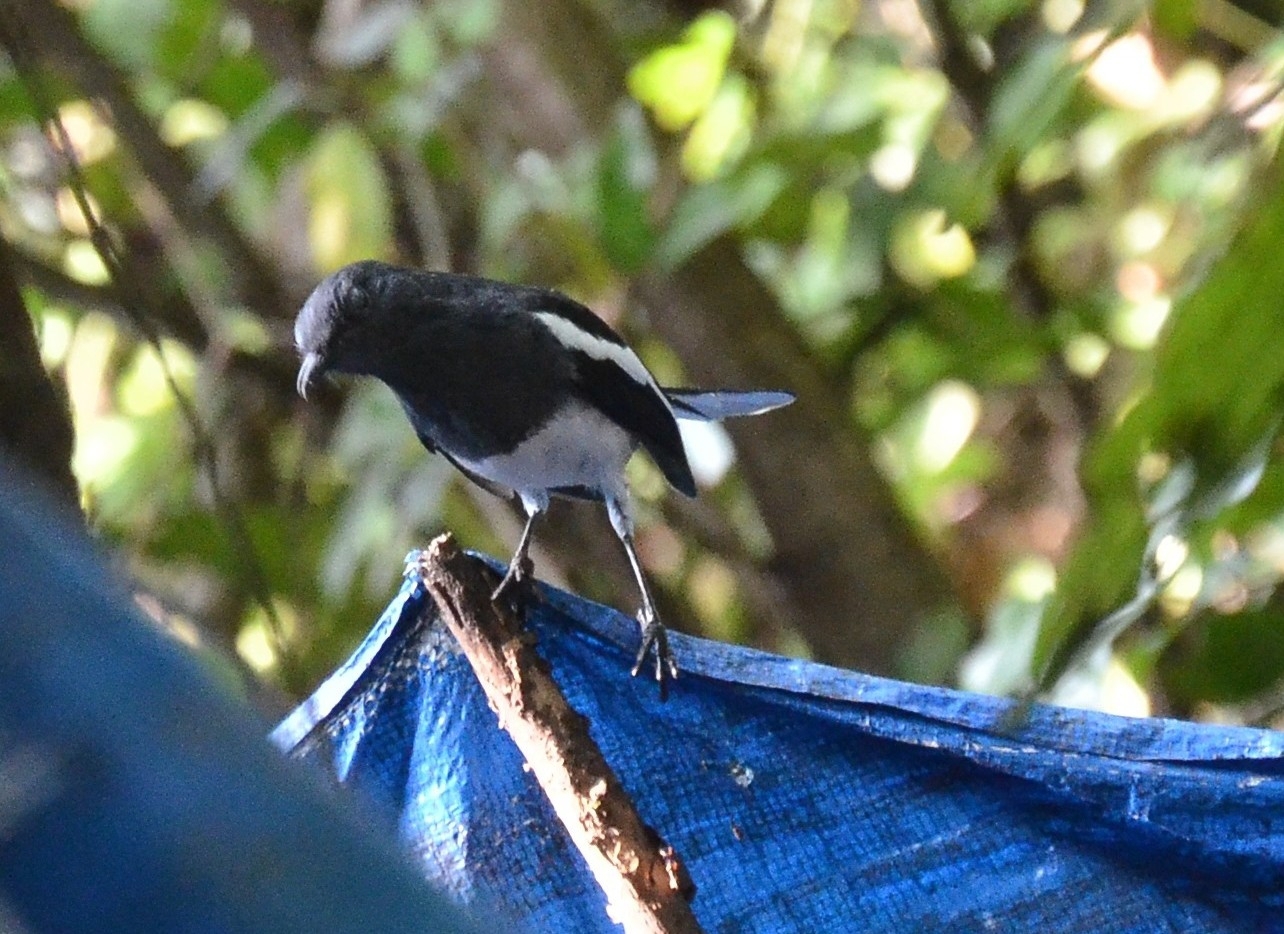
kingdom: Animalia
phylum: Chordata
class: Aves
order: Passeriformes
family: Muscicapidae
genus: Copsychus
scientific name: Copsychus saularis
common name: Oriental magpie-robin
